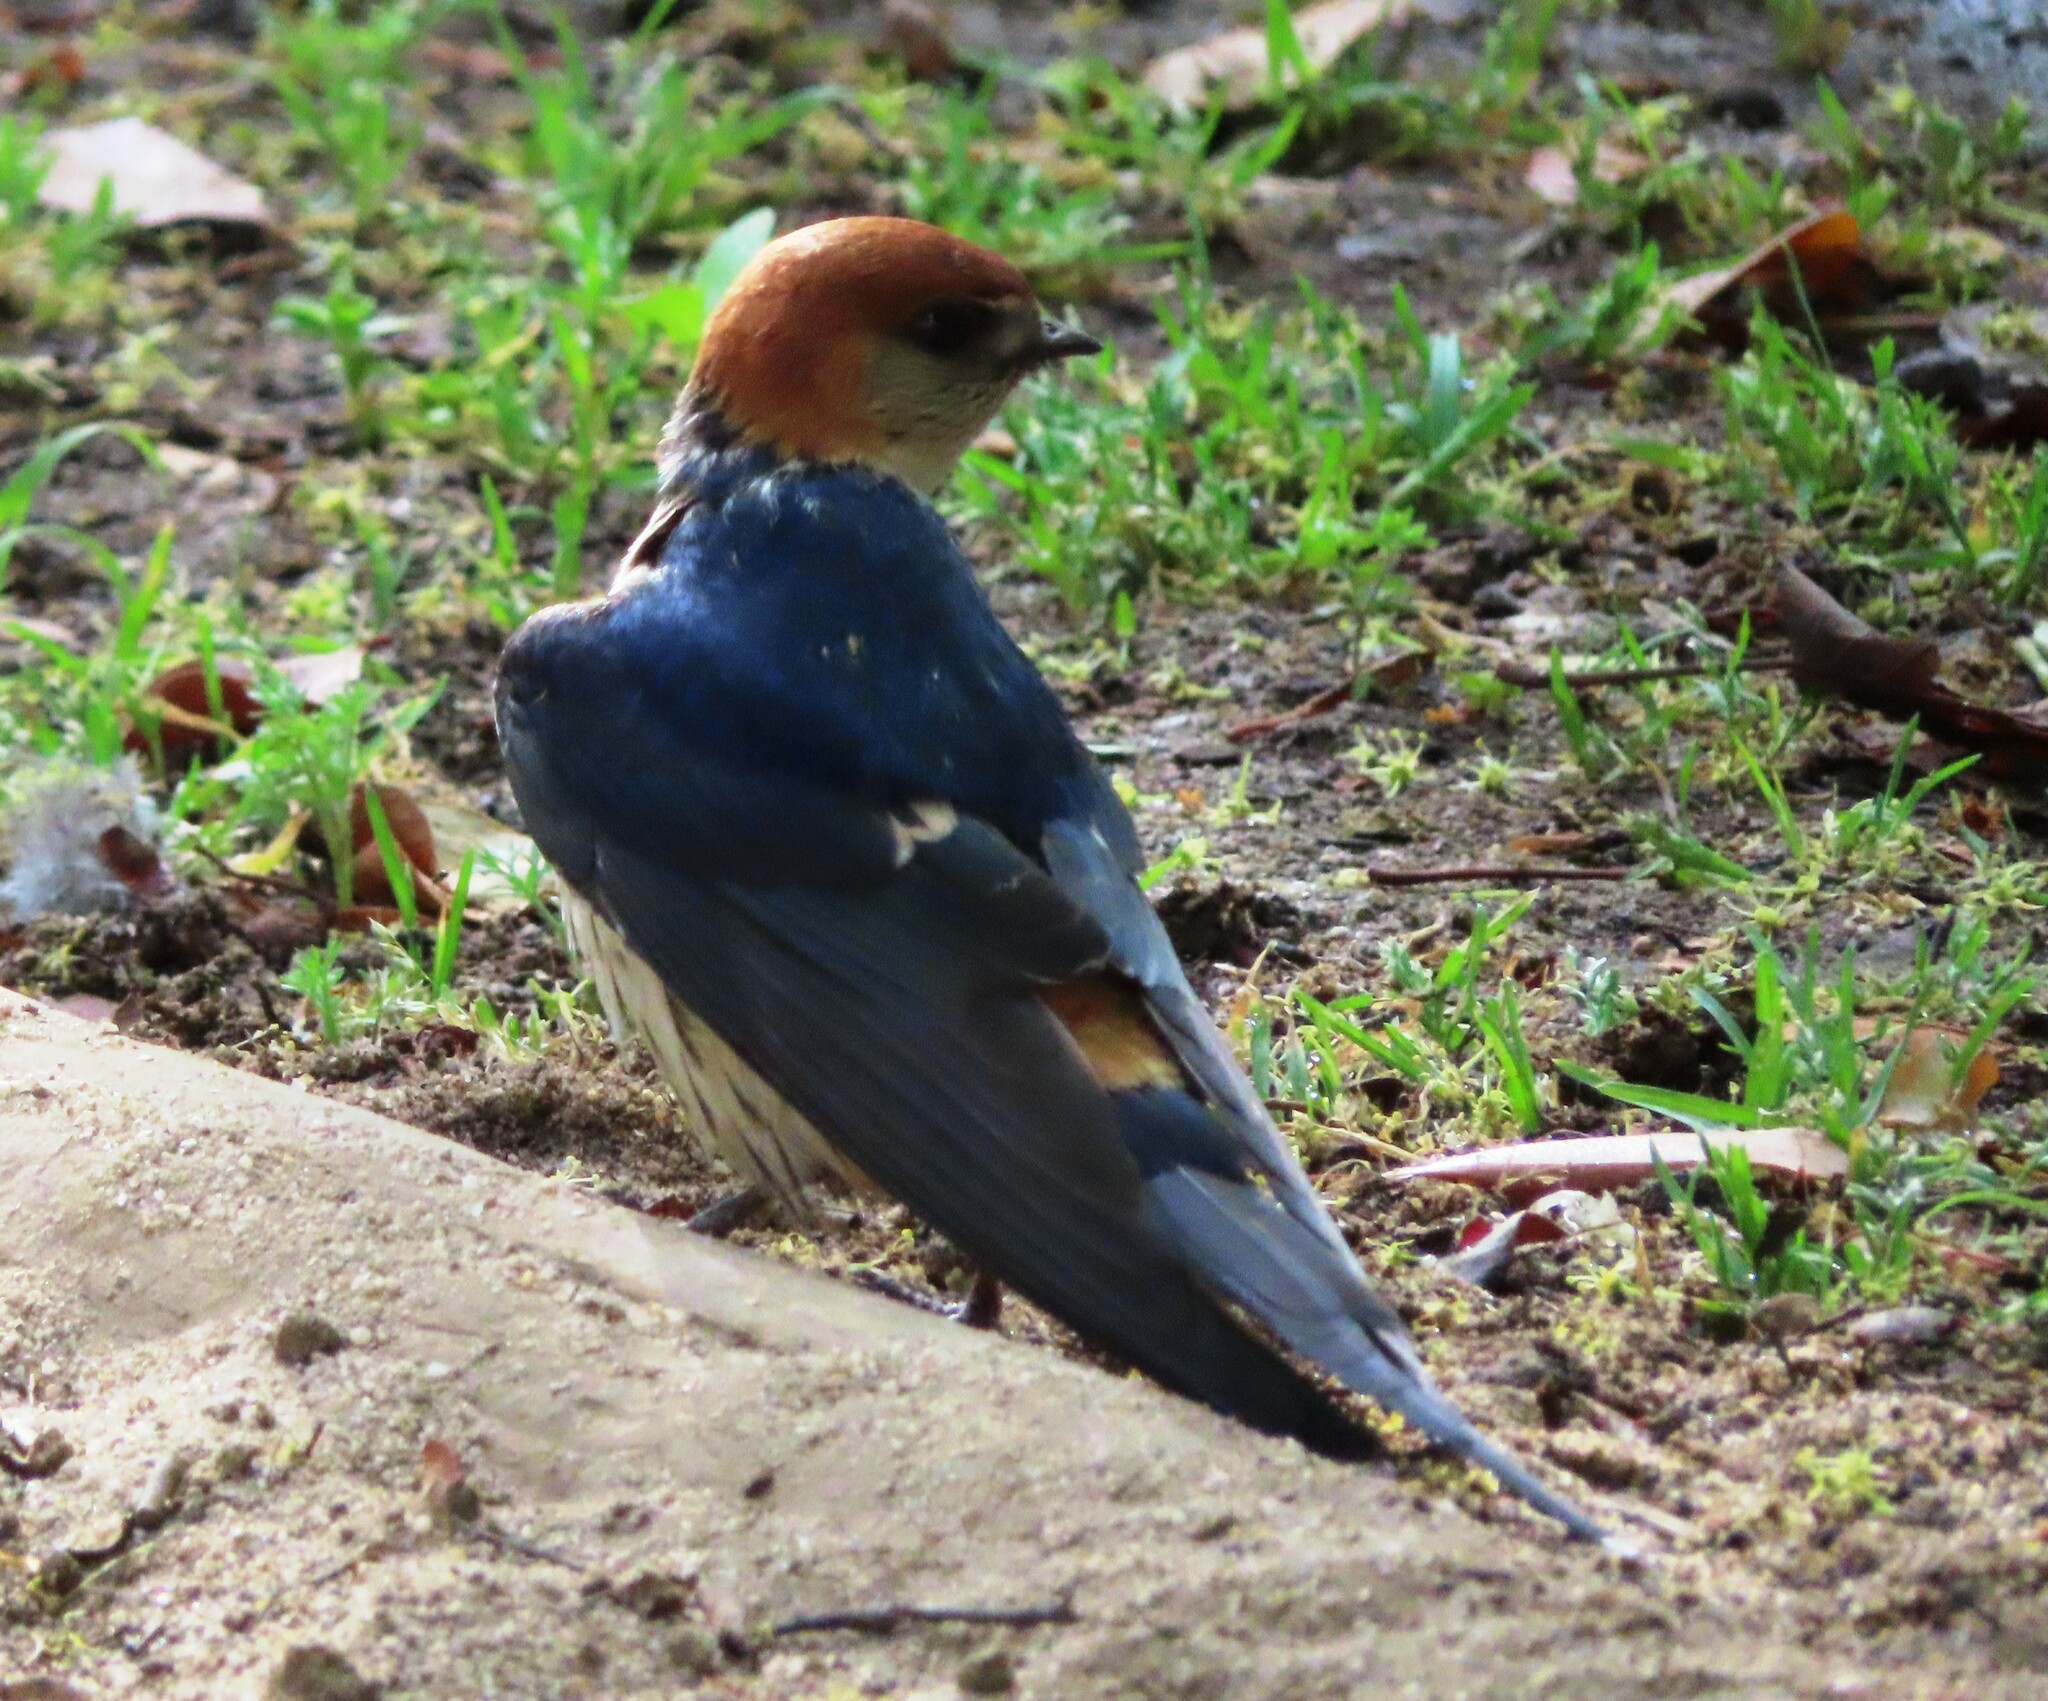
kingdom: Animalia
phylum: Chordata
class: Aves
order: Passeriformes
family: Hirundinidae
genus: Cecropis
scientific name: Cecropis cucullata
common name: Greater striped-swallow
